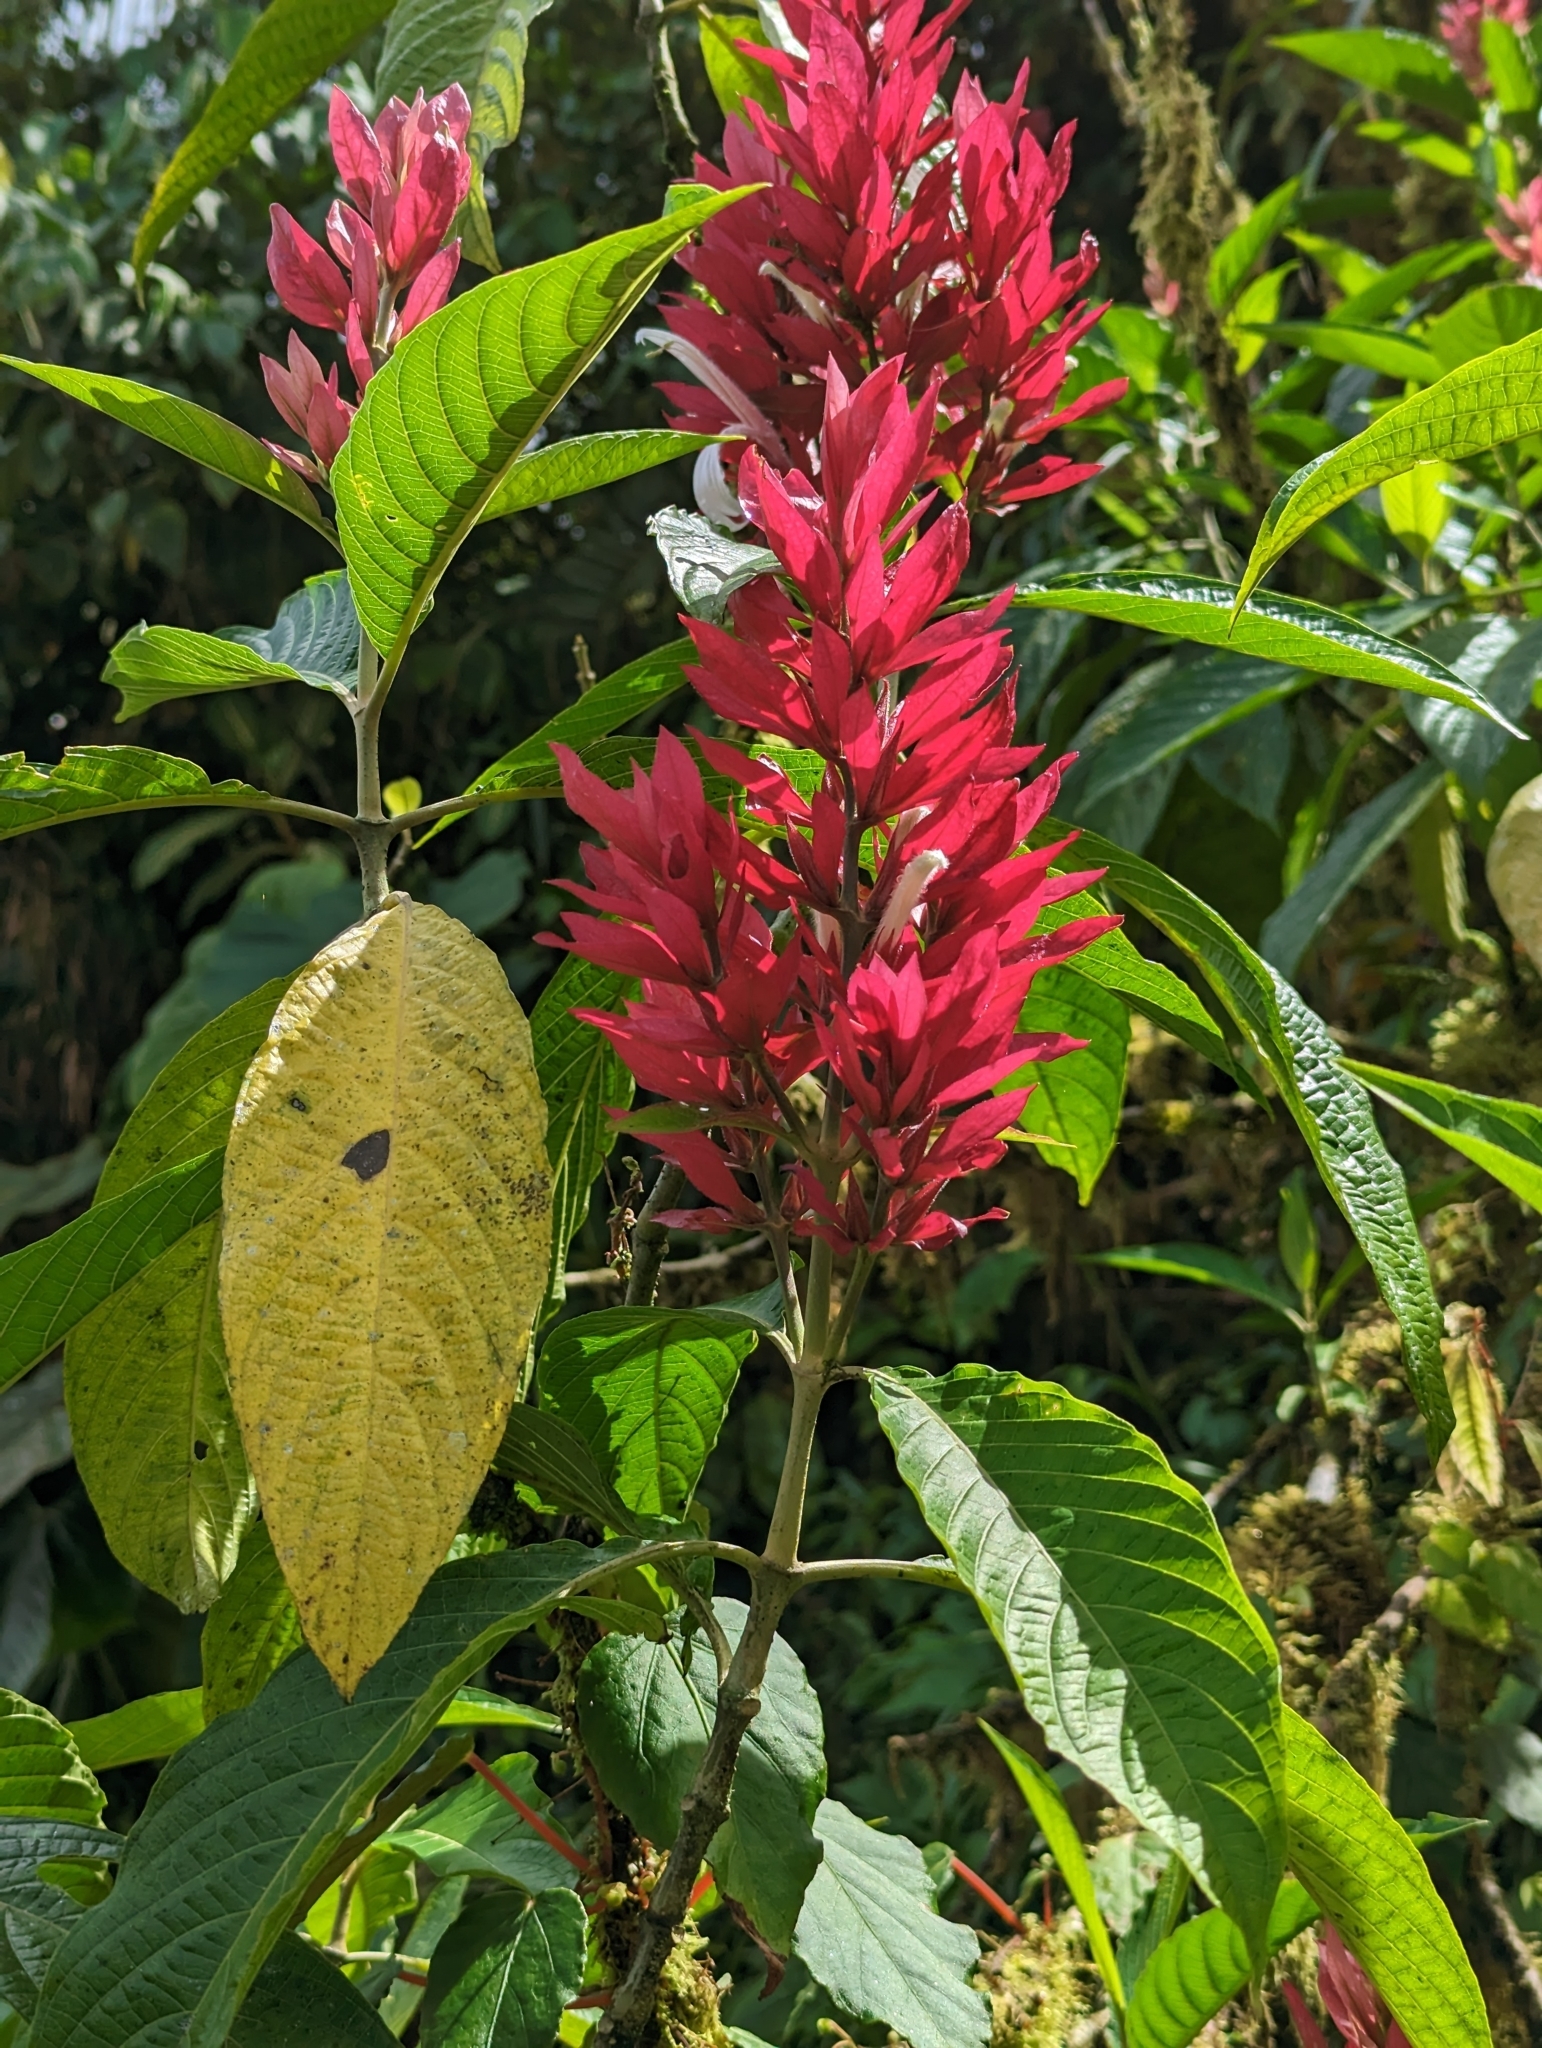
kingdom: Plantae
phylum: Tracheophyta
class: Magnoliopsida
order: Lamiales
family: Acanthaceae
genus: Megaskepasma
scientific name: Megaskepasma erythrochlamys
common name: Brazilian red-cloak
